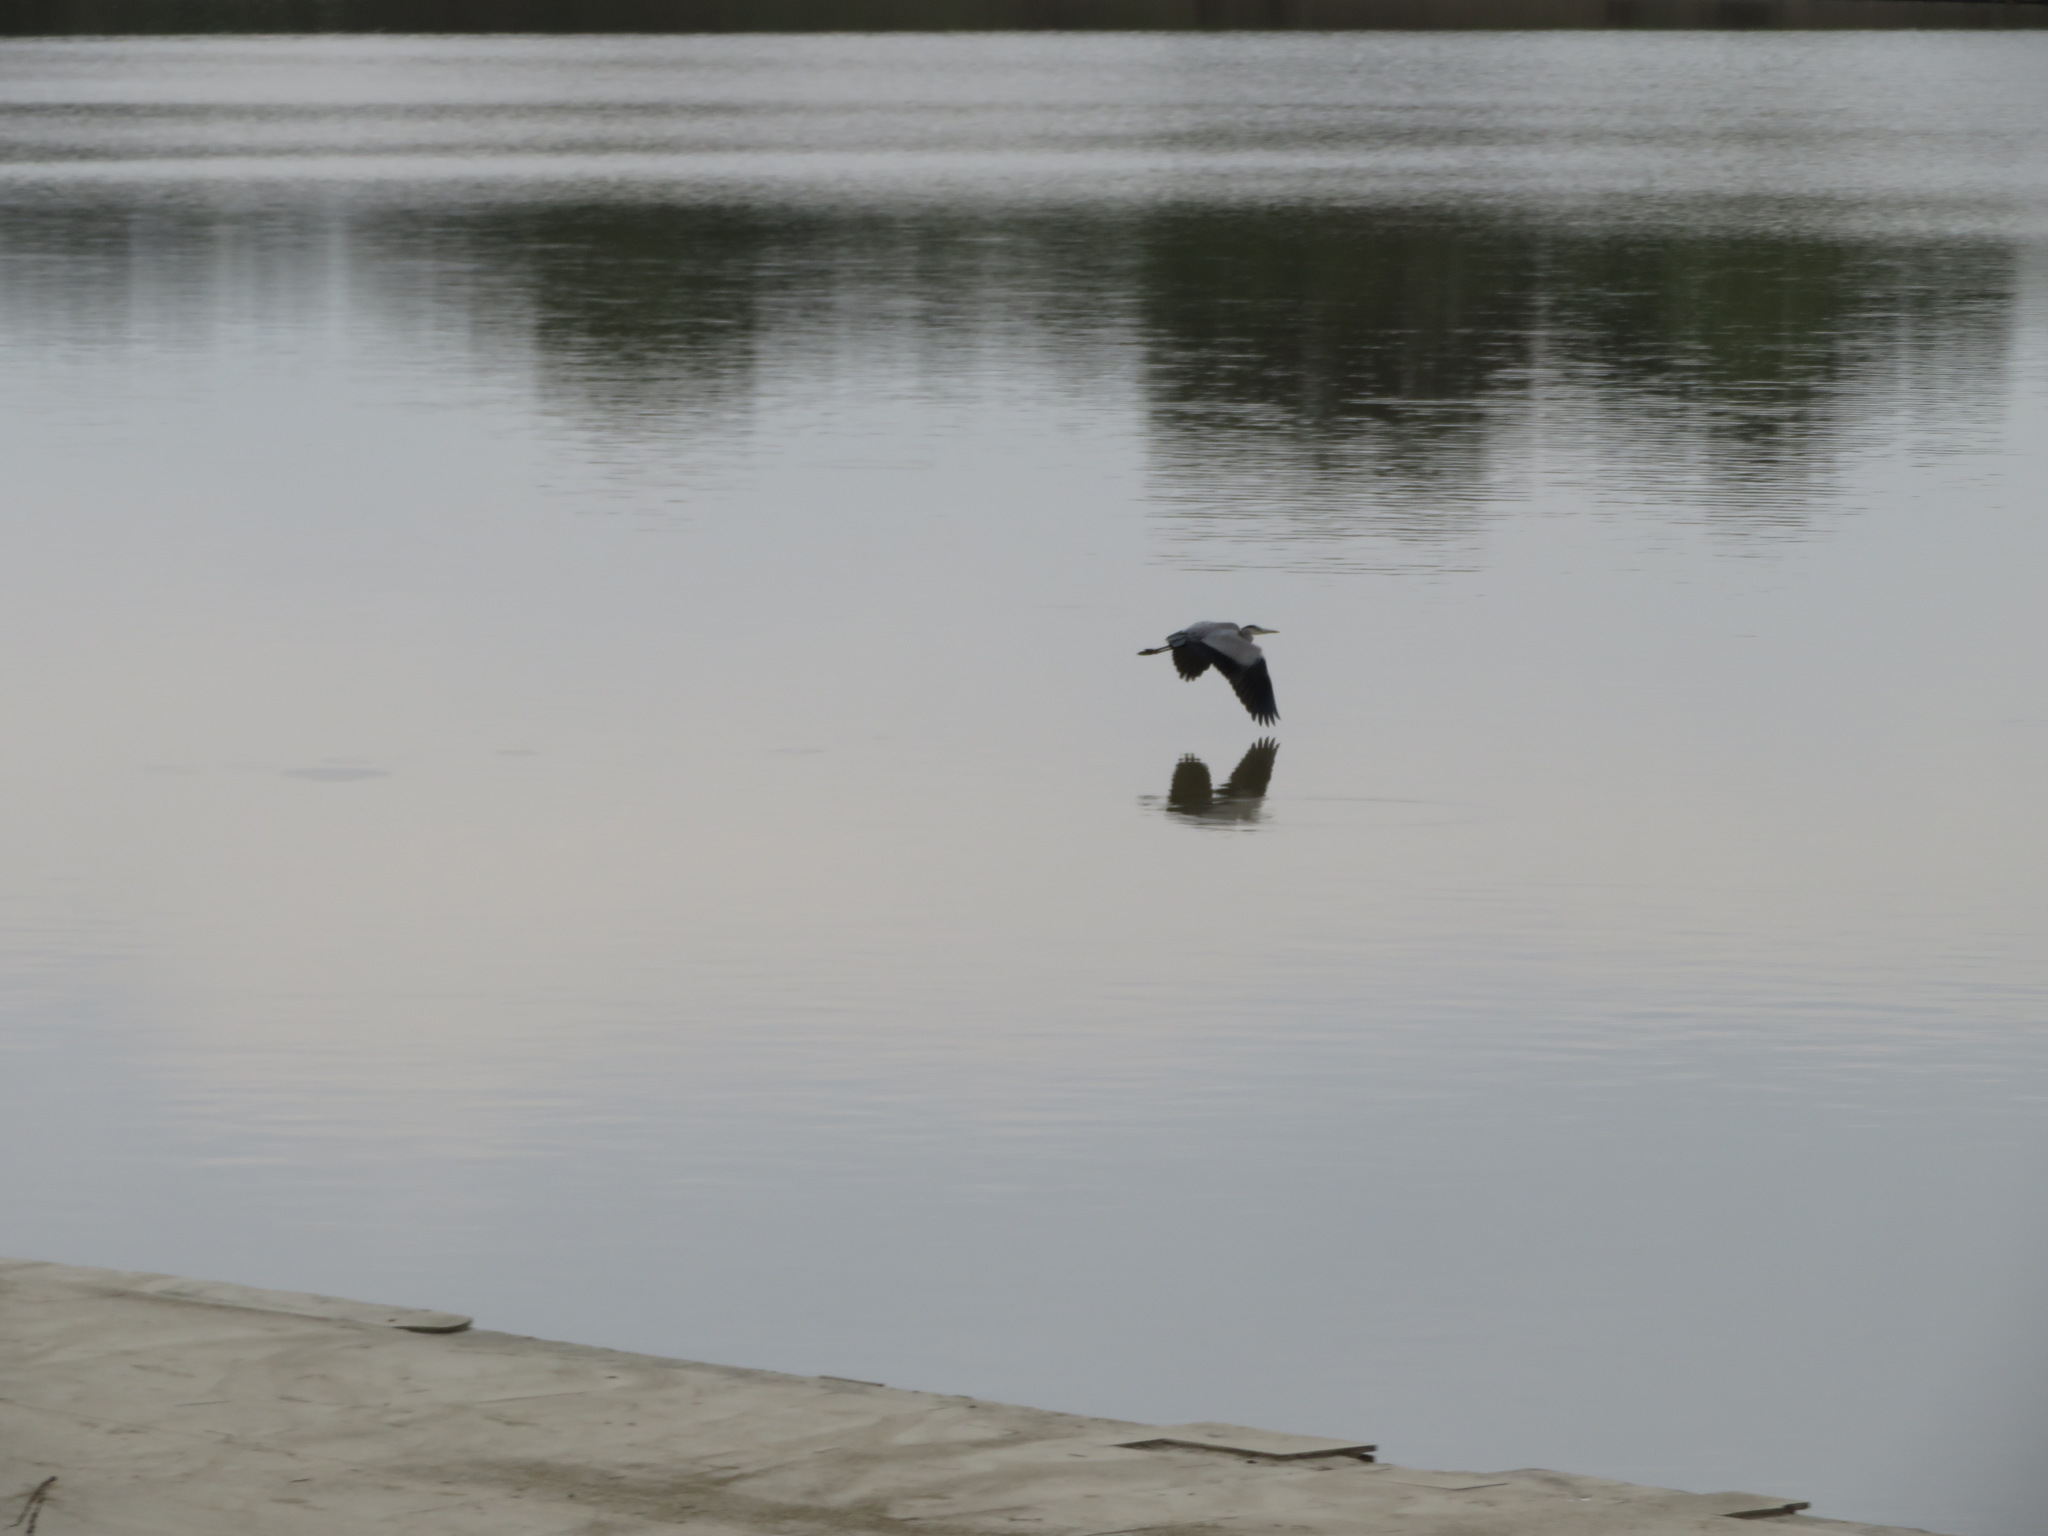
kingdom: Animalia
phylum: Chordata
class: Aves
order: Pelecaniformes
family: Ardeidae
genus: Ardea
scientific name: Ardea cinerea
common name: Grey heron
